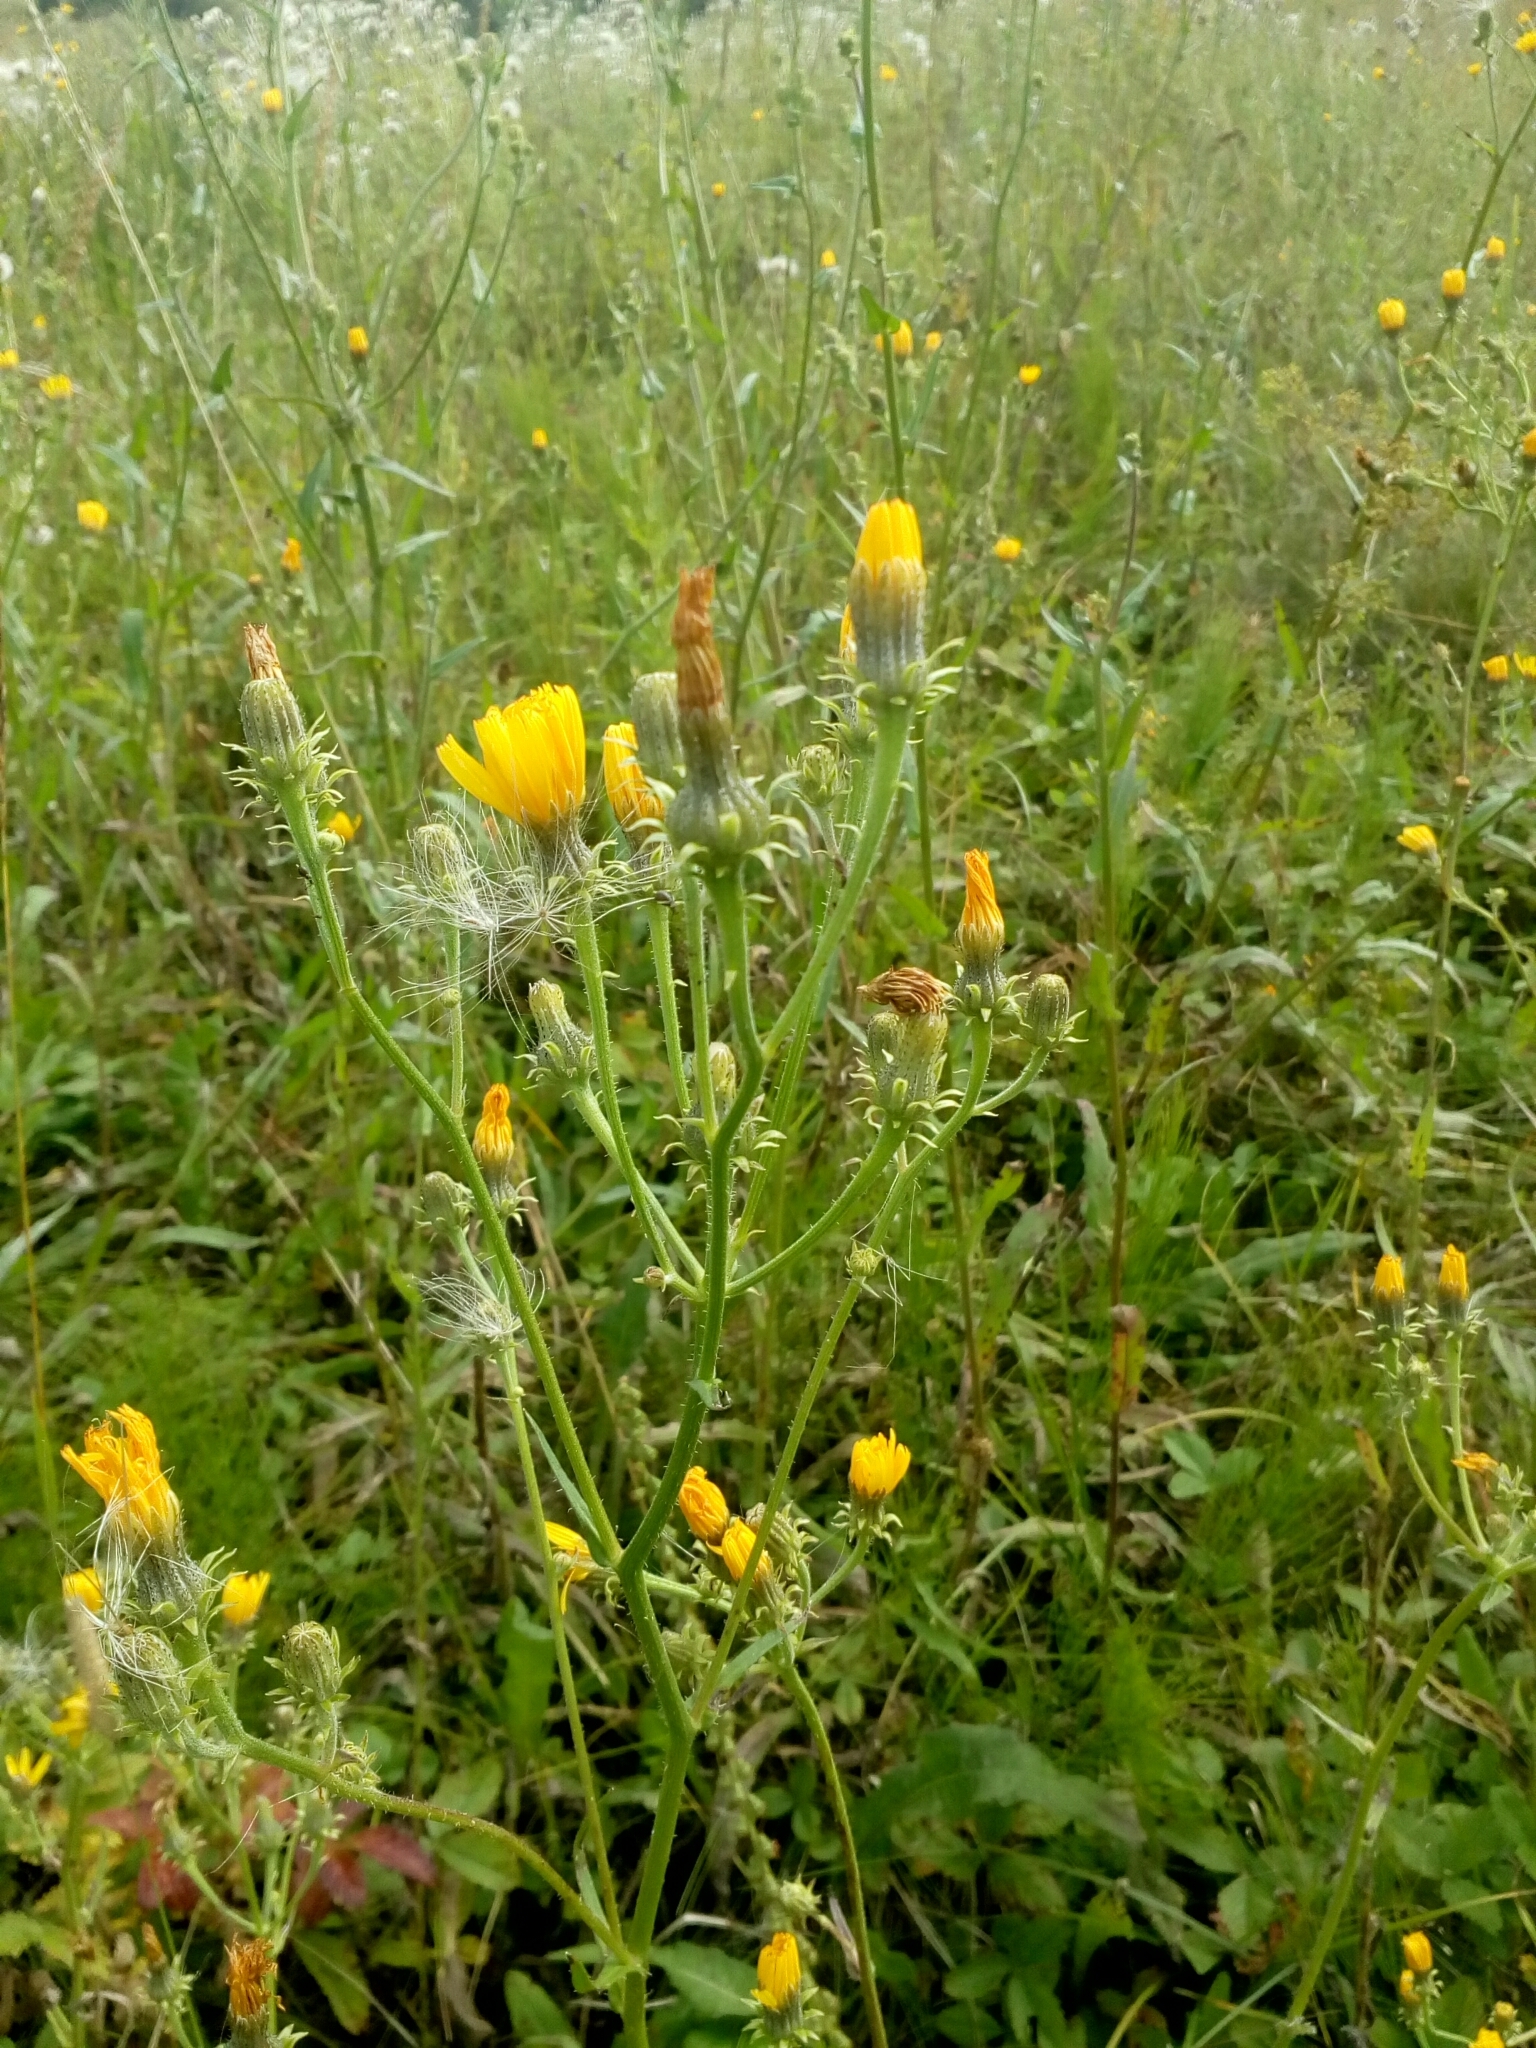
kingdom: Plantae
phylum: Tracheophyta
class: Magnoliopsida
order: Asterales
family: Asteraceae
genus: Picris
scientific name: Picris hieracioides
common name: Hawkweed oxtongue
